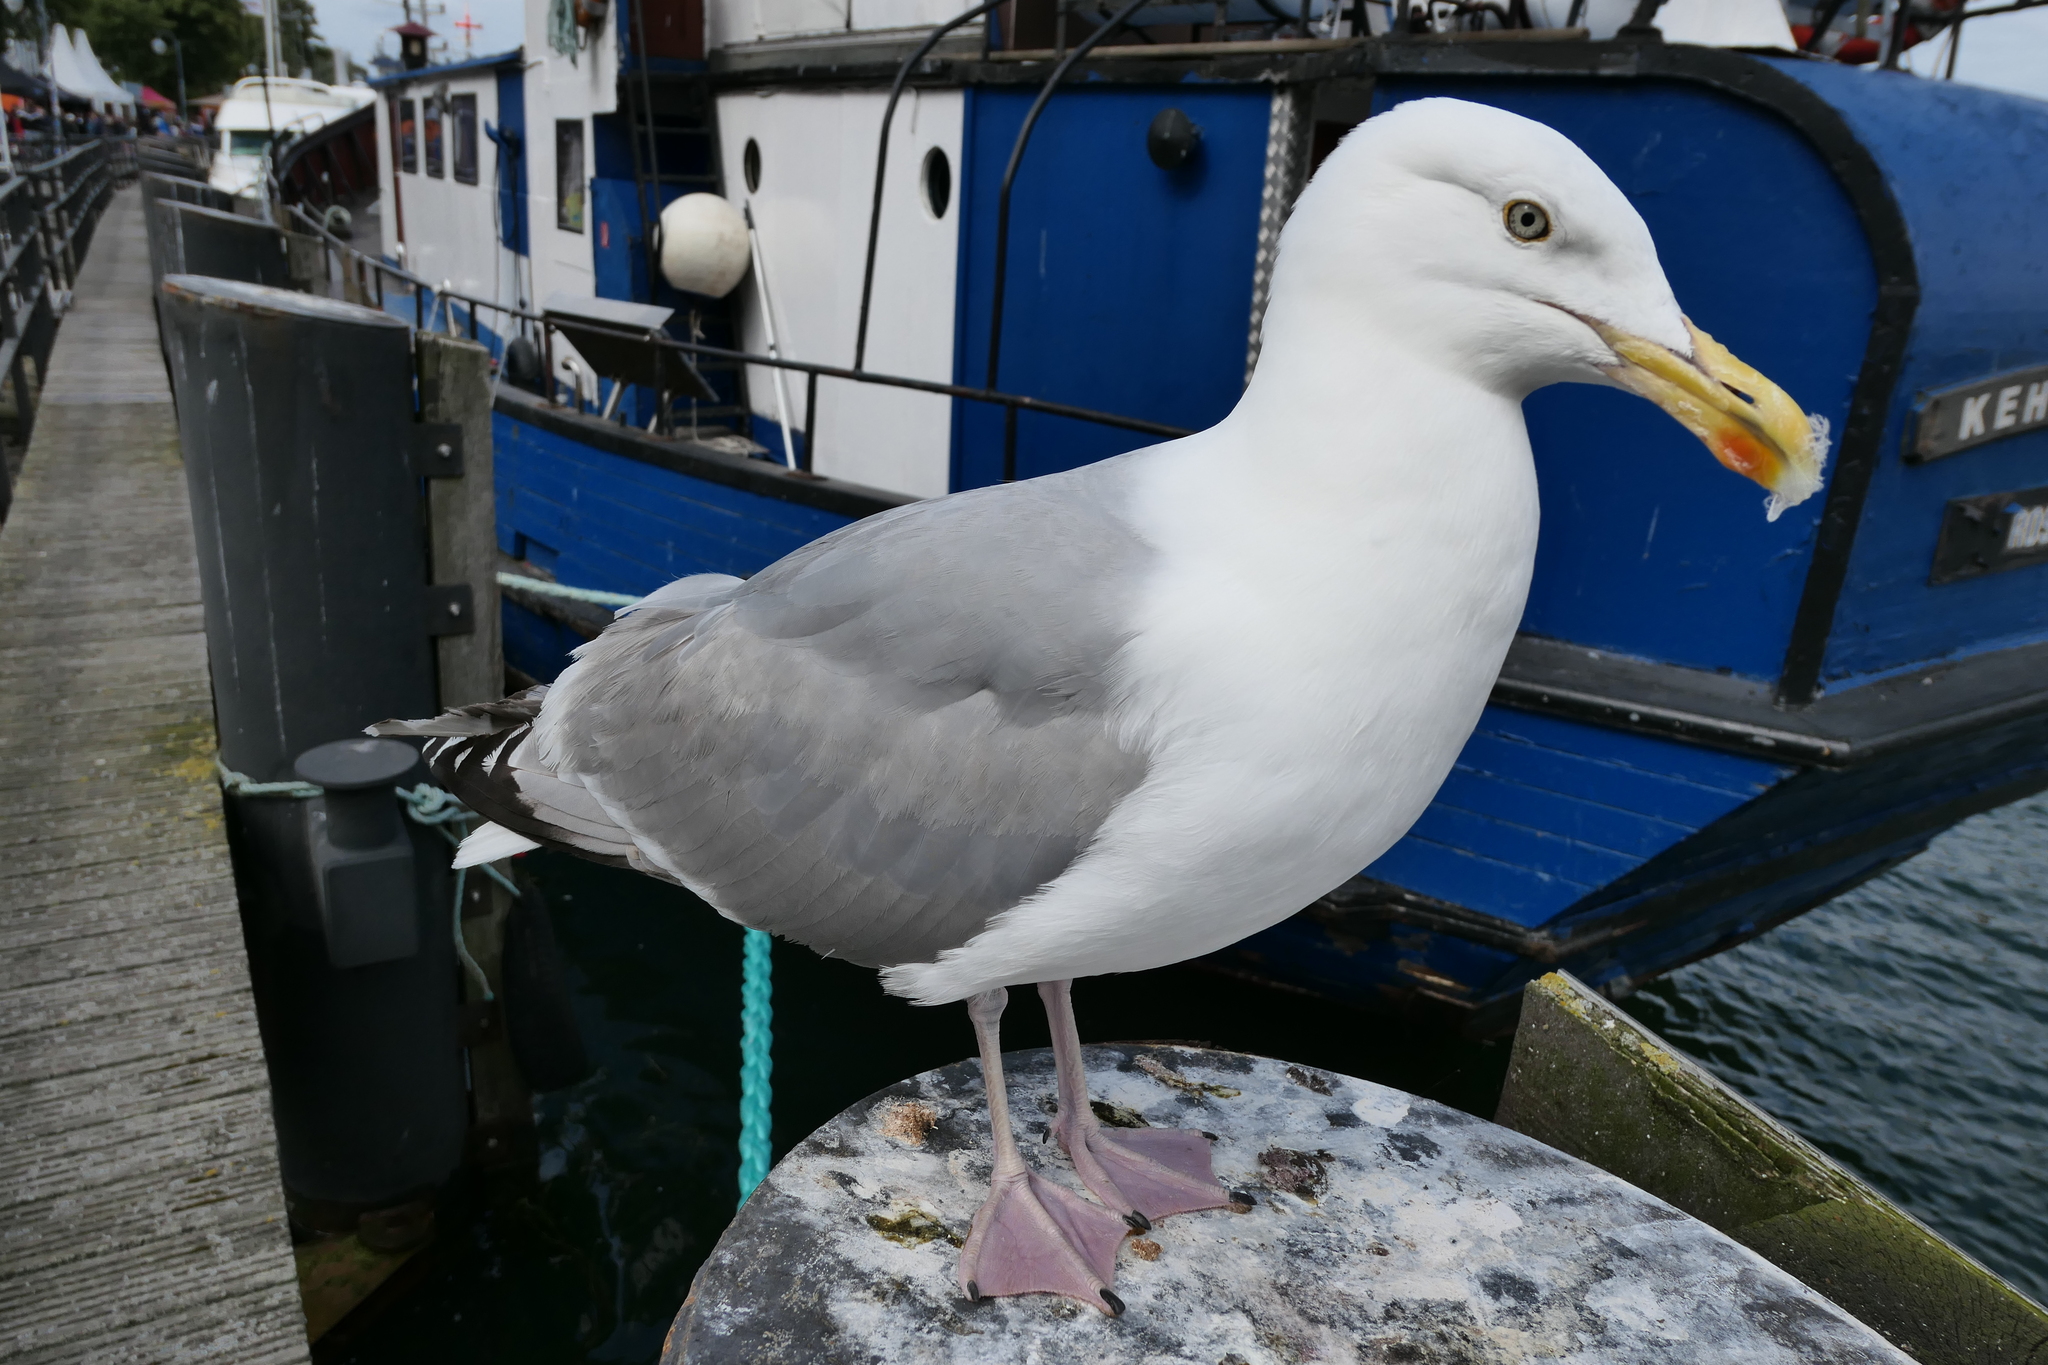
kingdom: Animalia
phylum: Chordata
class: Aves
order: Charadriiformes
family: Laridae
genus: Larus
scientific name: Larus argentatus
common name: Herring gull
